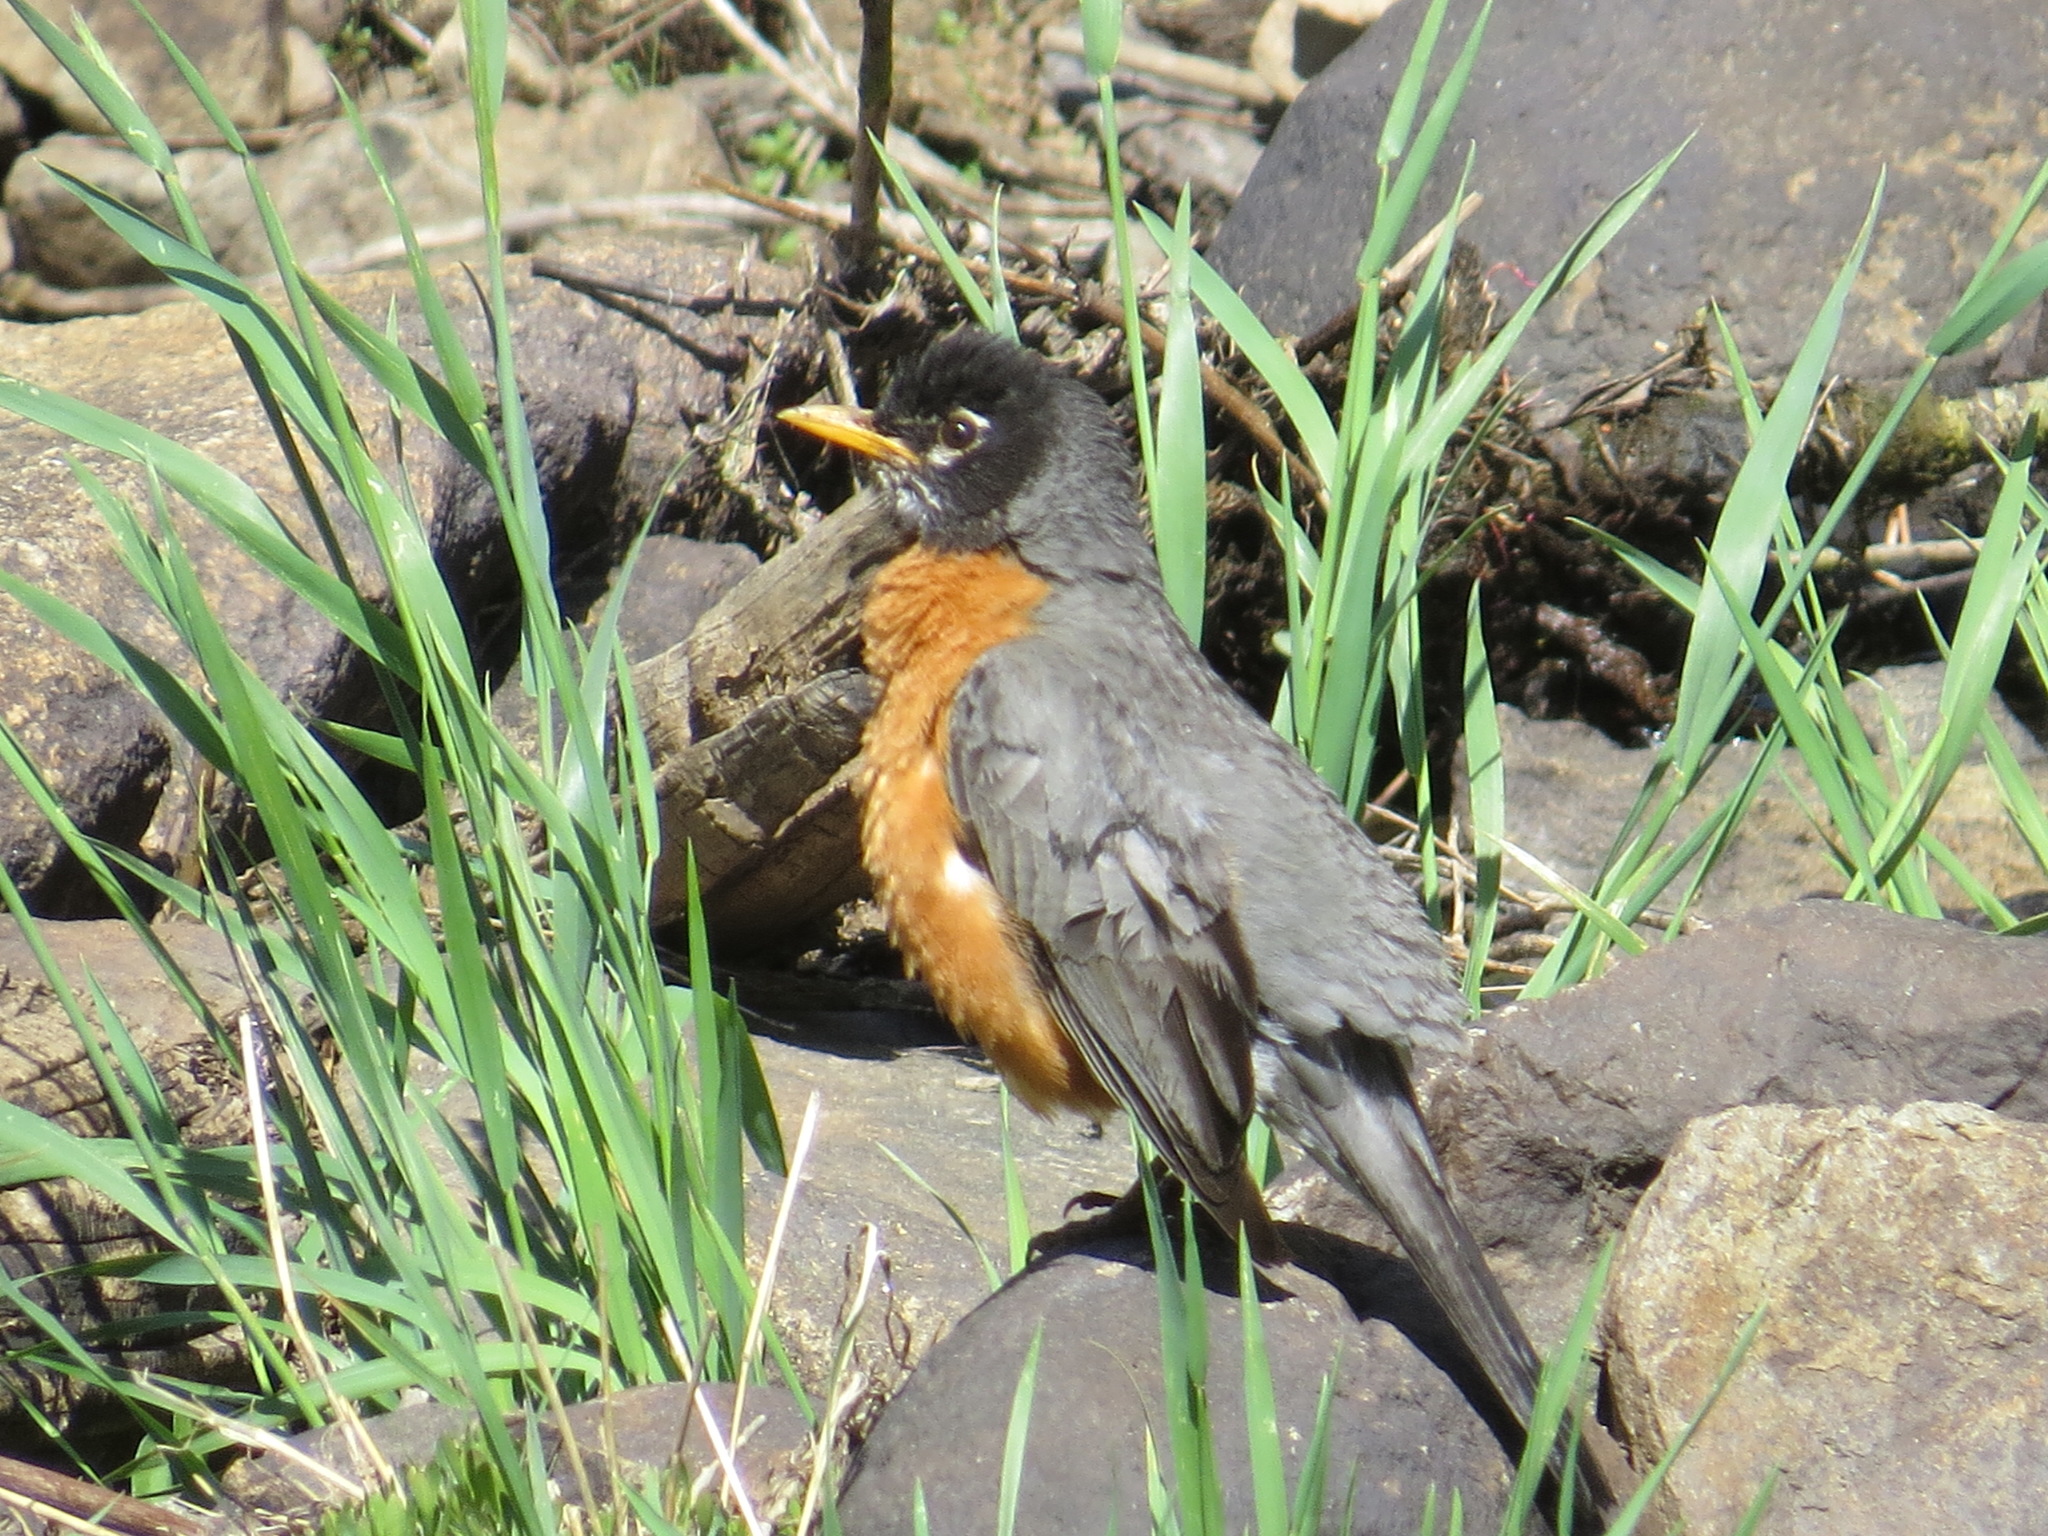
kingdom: Animalia
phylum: Chordata
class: Aves
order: Passeriformes
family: Turdidae
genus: Turdus
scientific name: Turdus migratorius
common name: American robin
